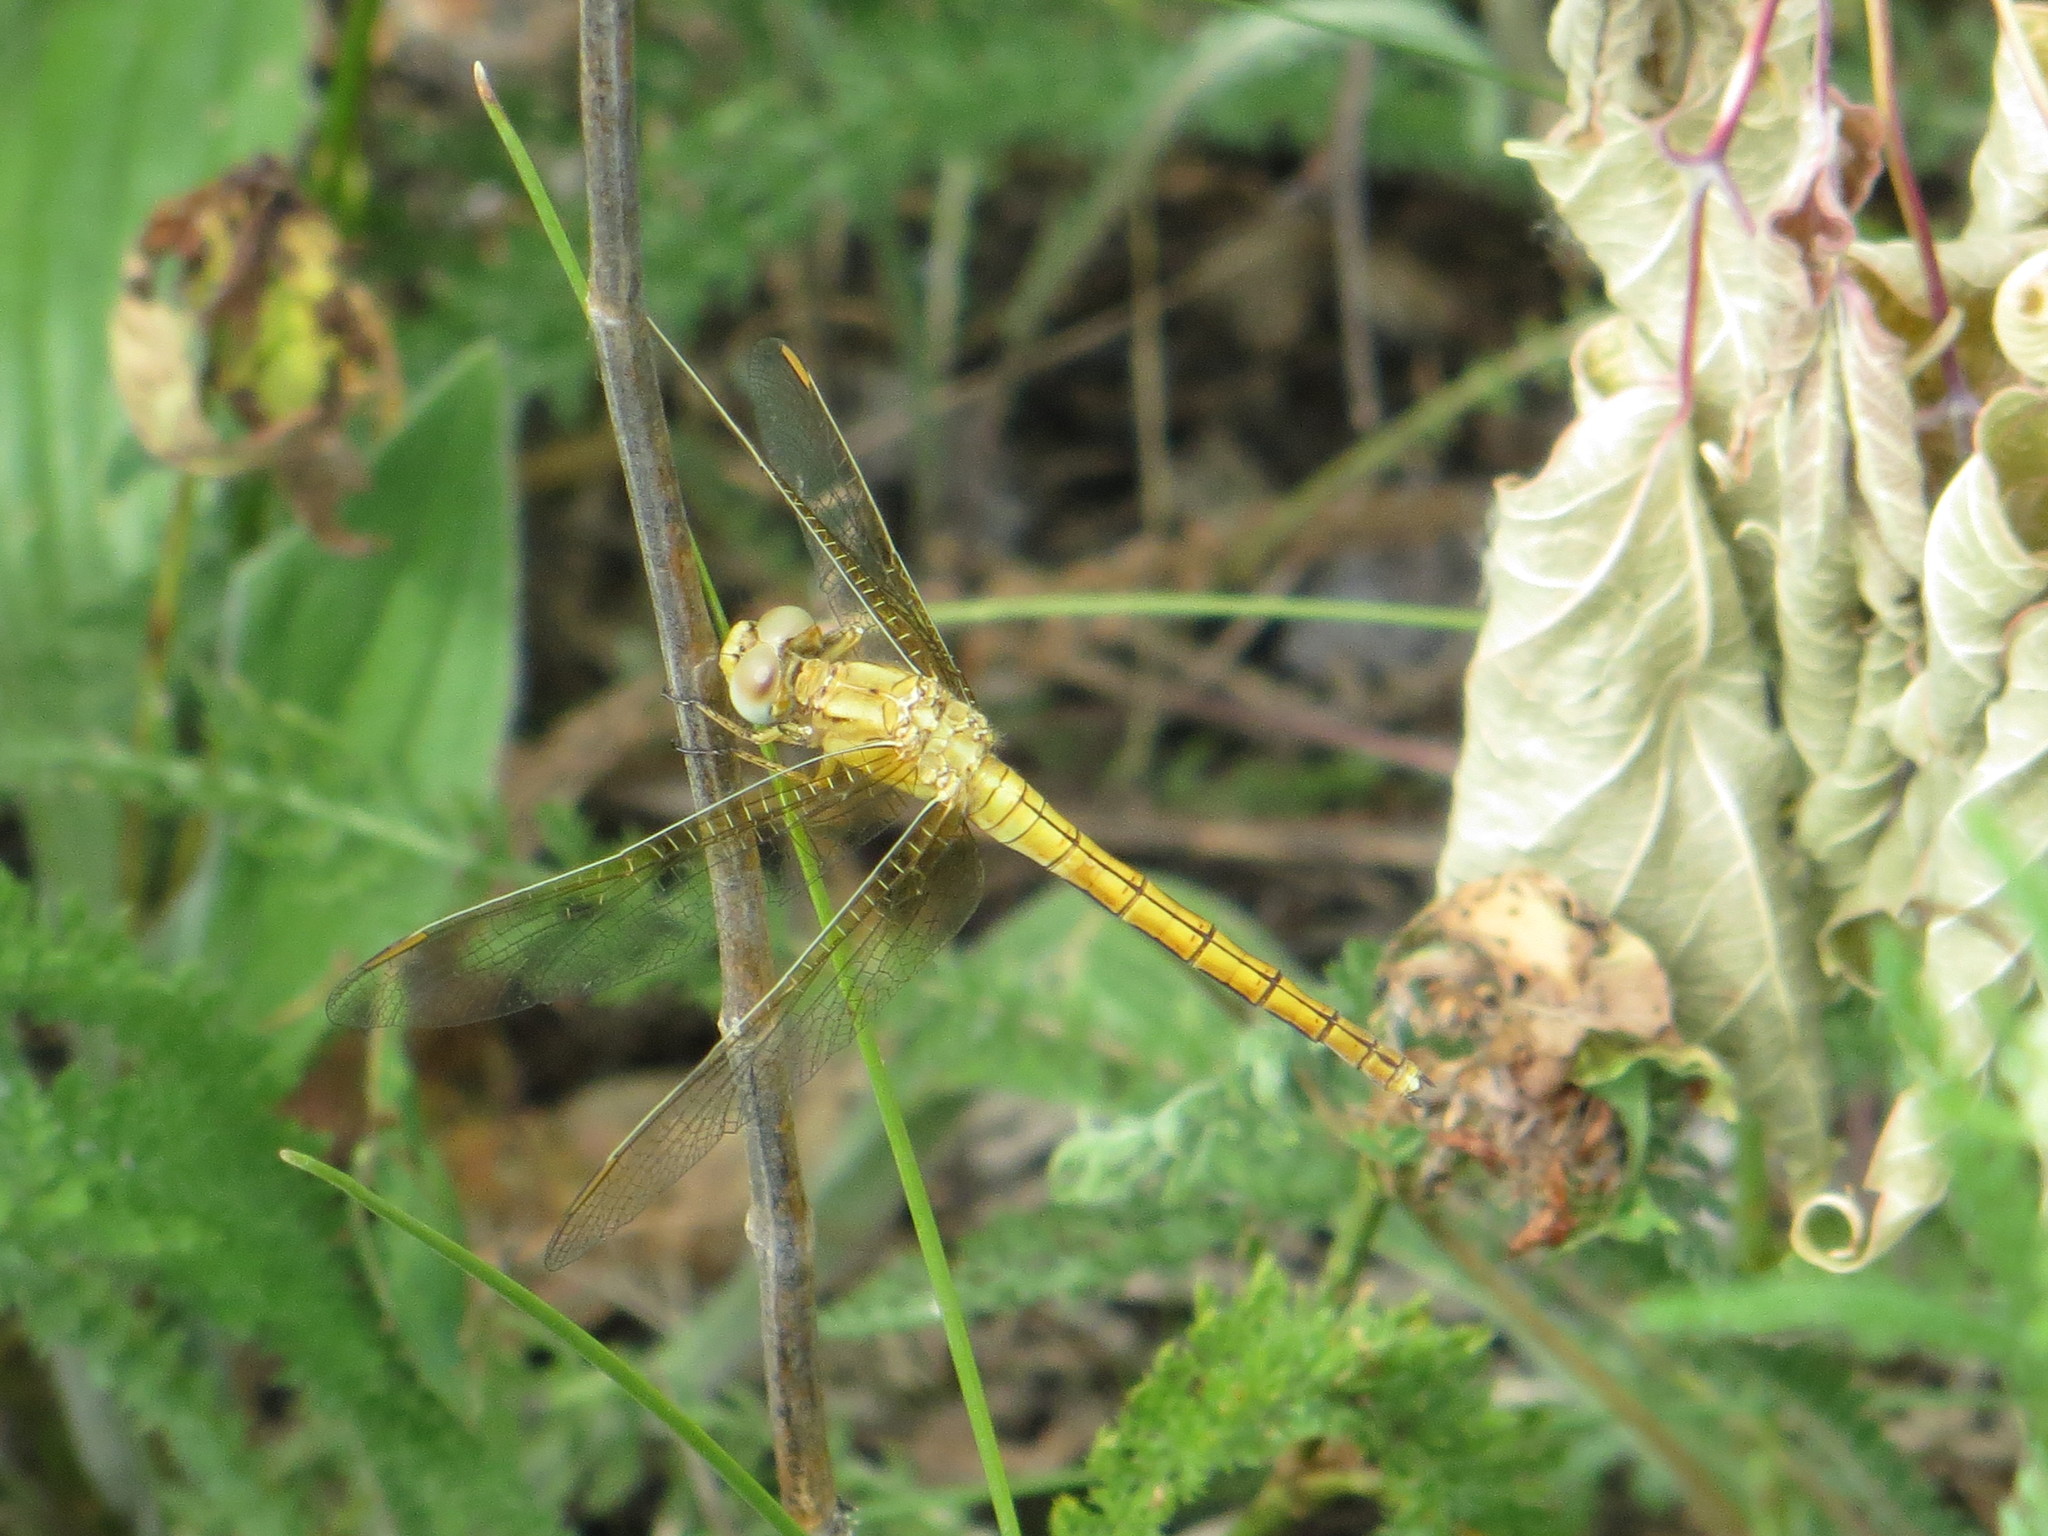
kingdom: Animalia
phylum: Arthropoda
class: Insecta
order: Odonata
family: Libellulidae
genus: Orthetrum
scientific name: Orthetrum coerulescens
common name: Keeled skimmer
